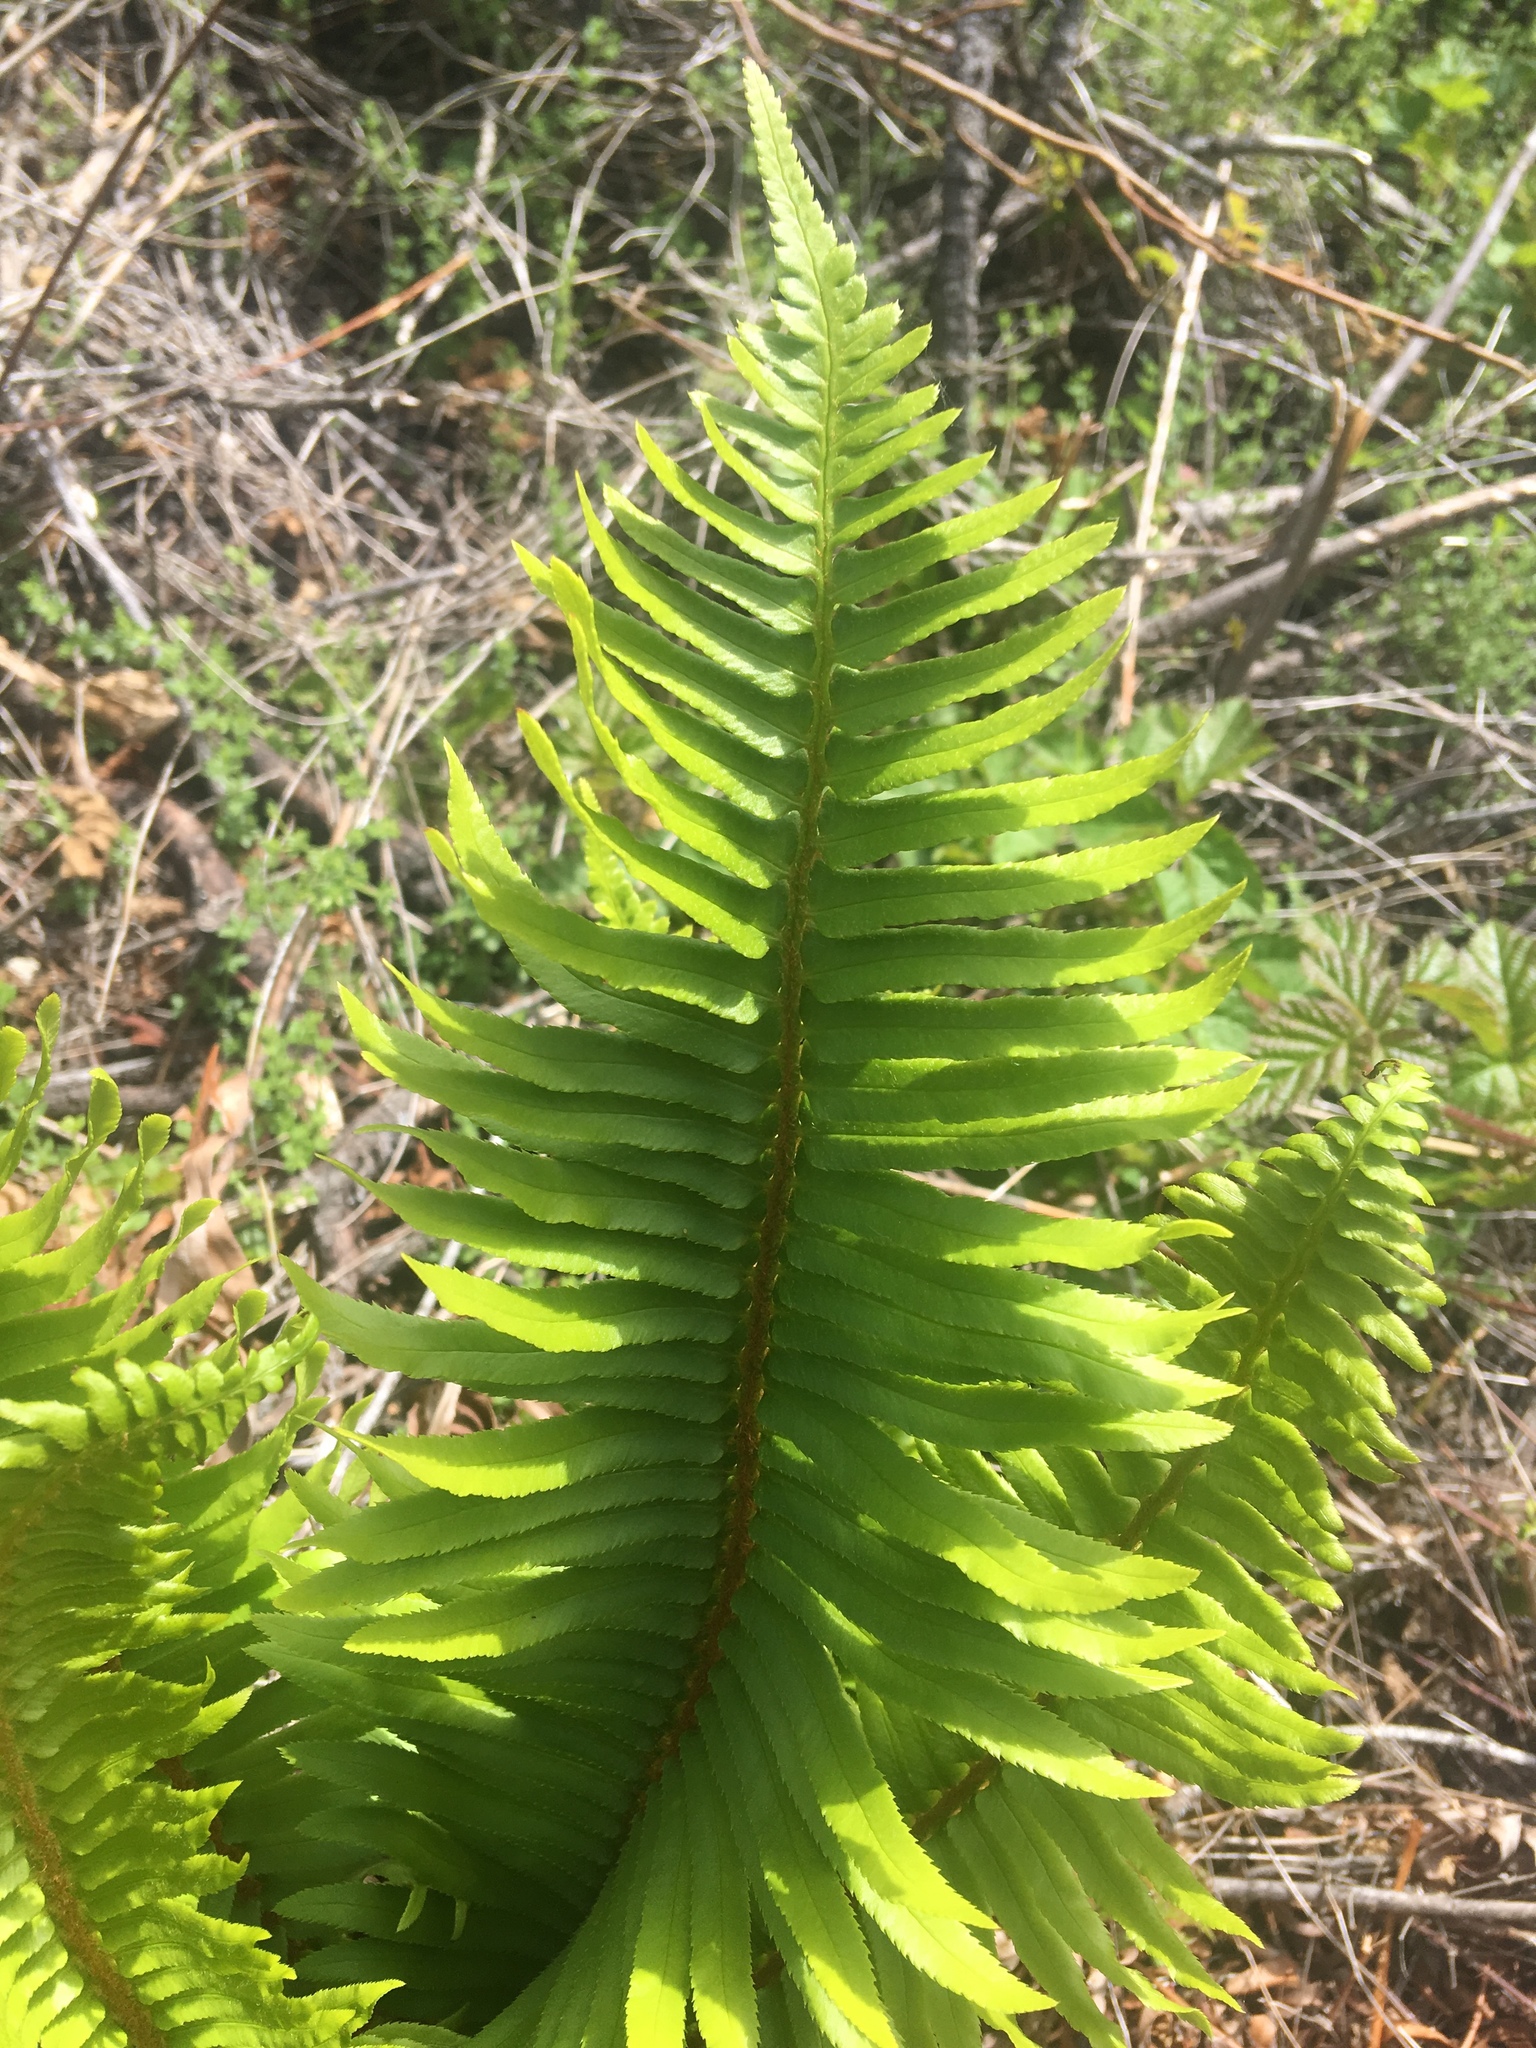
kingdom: Plantae
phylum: Tracheophyta
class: Polypodiopsida
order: Polypodiales
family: Dryopteridaceae
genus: Polystichum
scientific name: Polystichum munitum
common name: Western sword-fern
